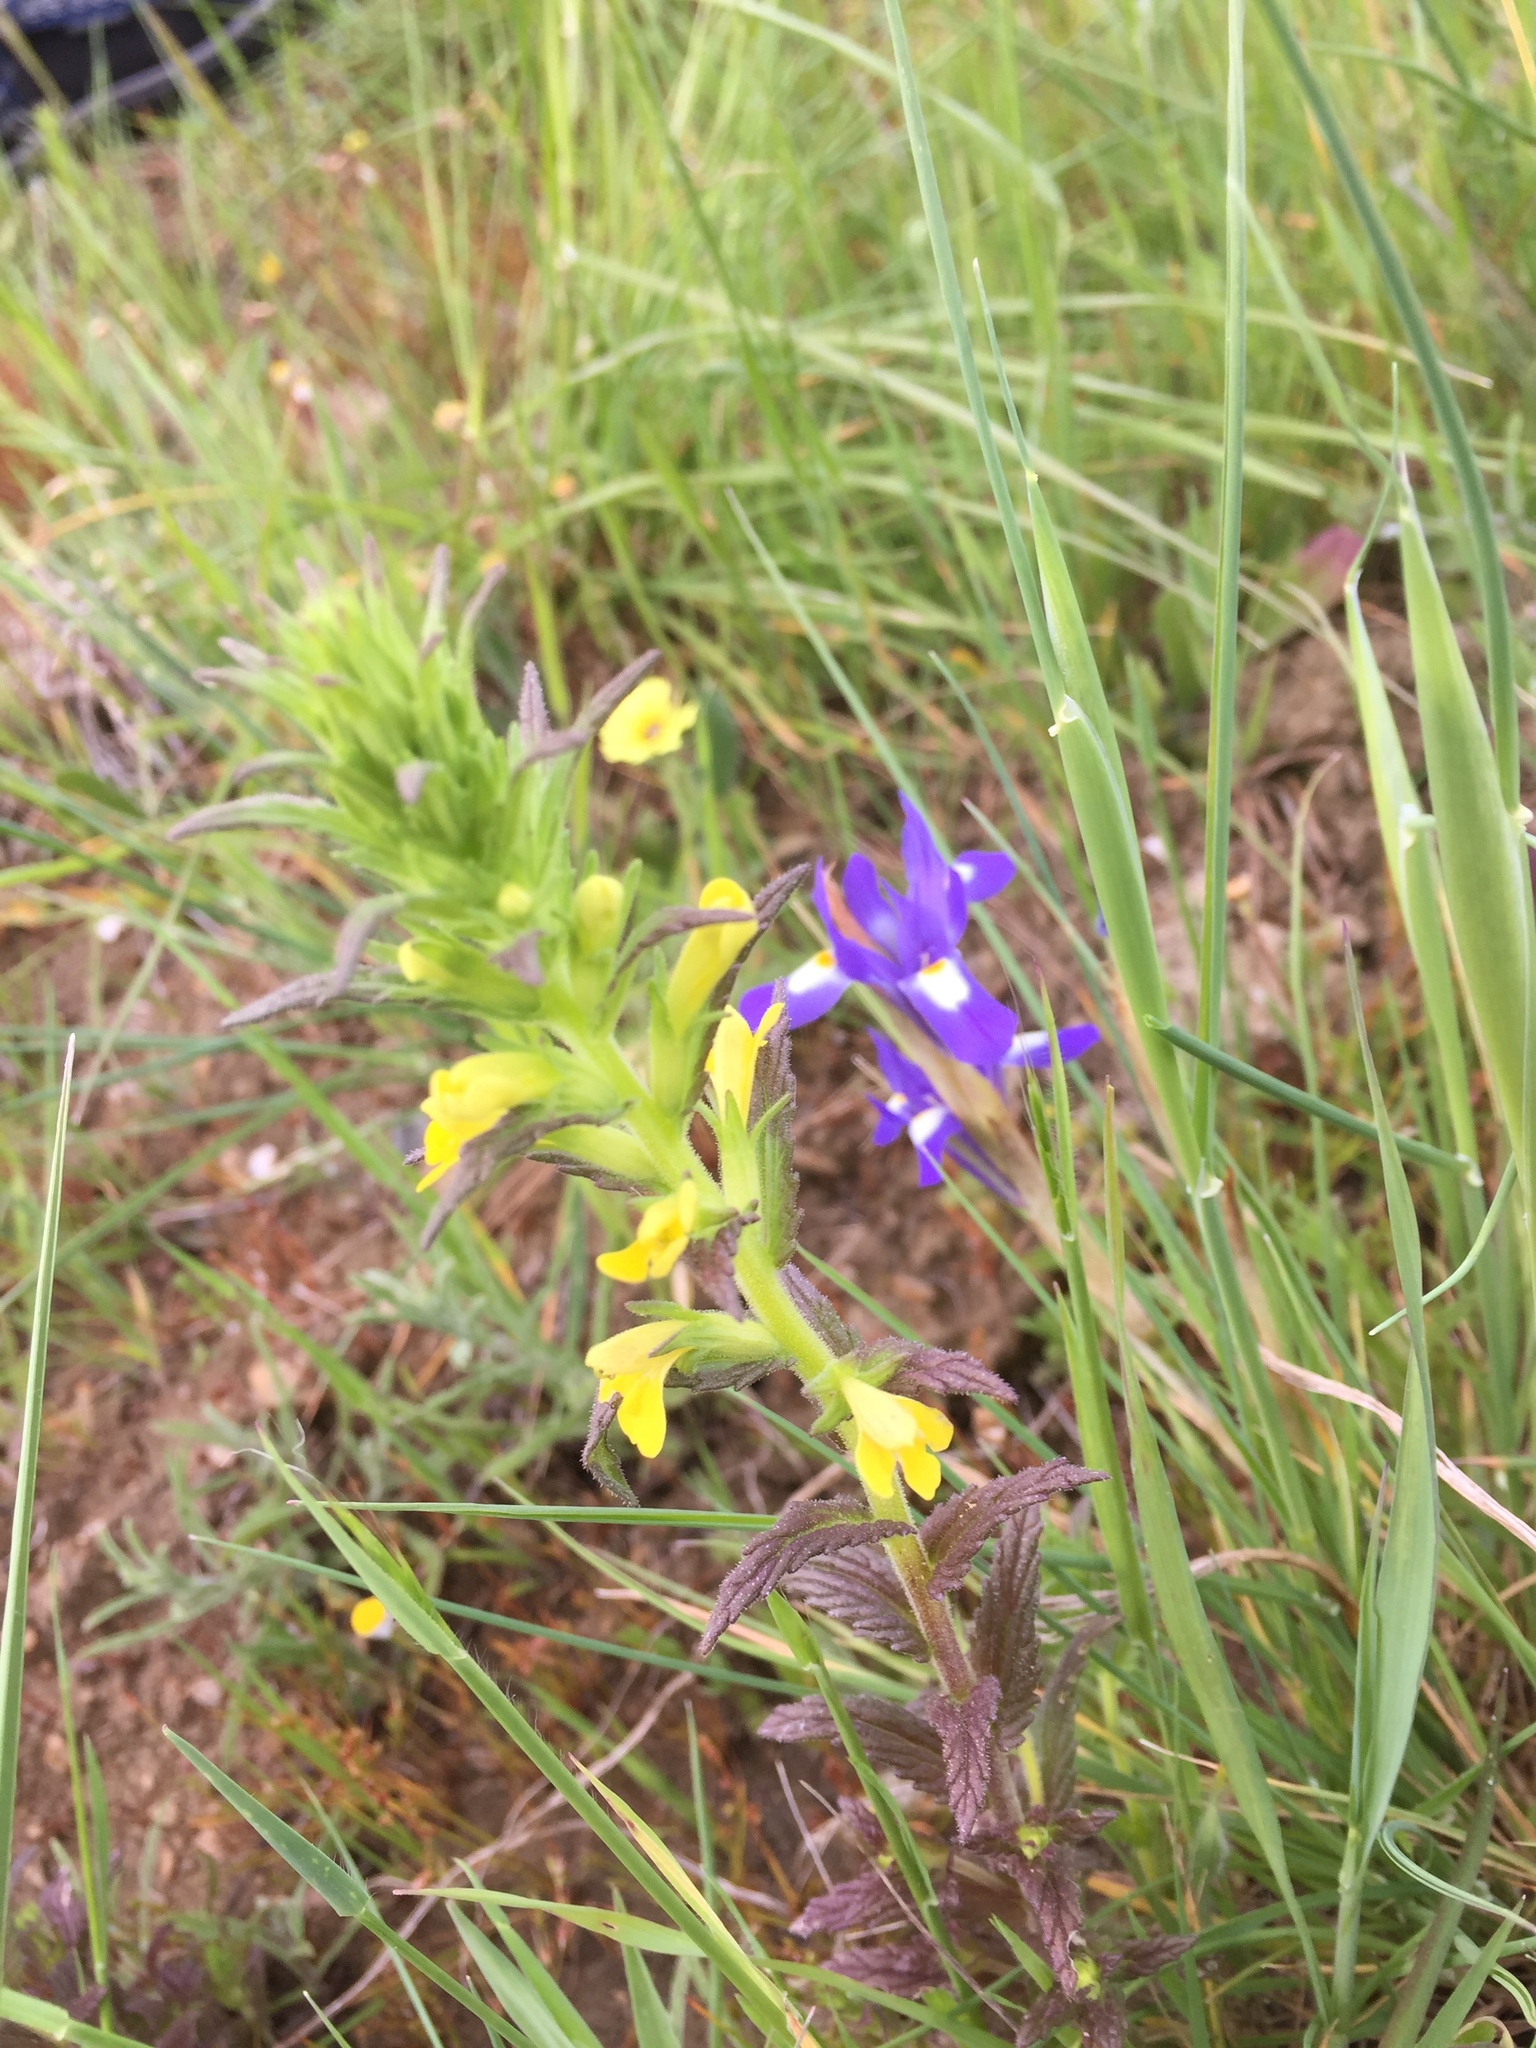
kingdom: Plantae
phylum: Tracheophyta
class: Magnoliopsida
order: Lamiales
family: Orobanchaceae
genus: Bellardia
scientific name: Bellardia viscosa
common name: Sticky parentucellia
